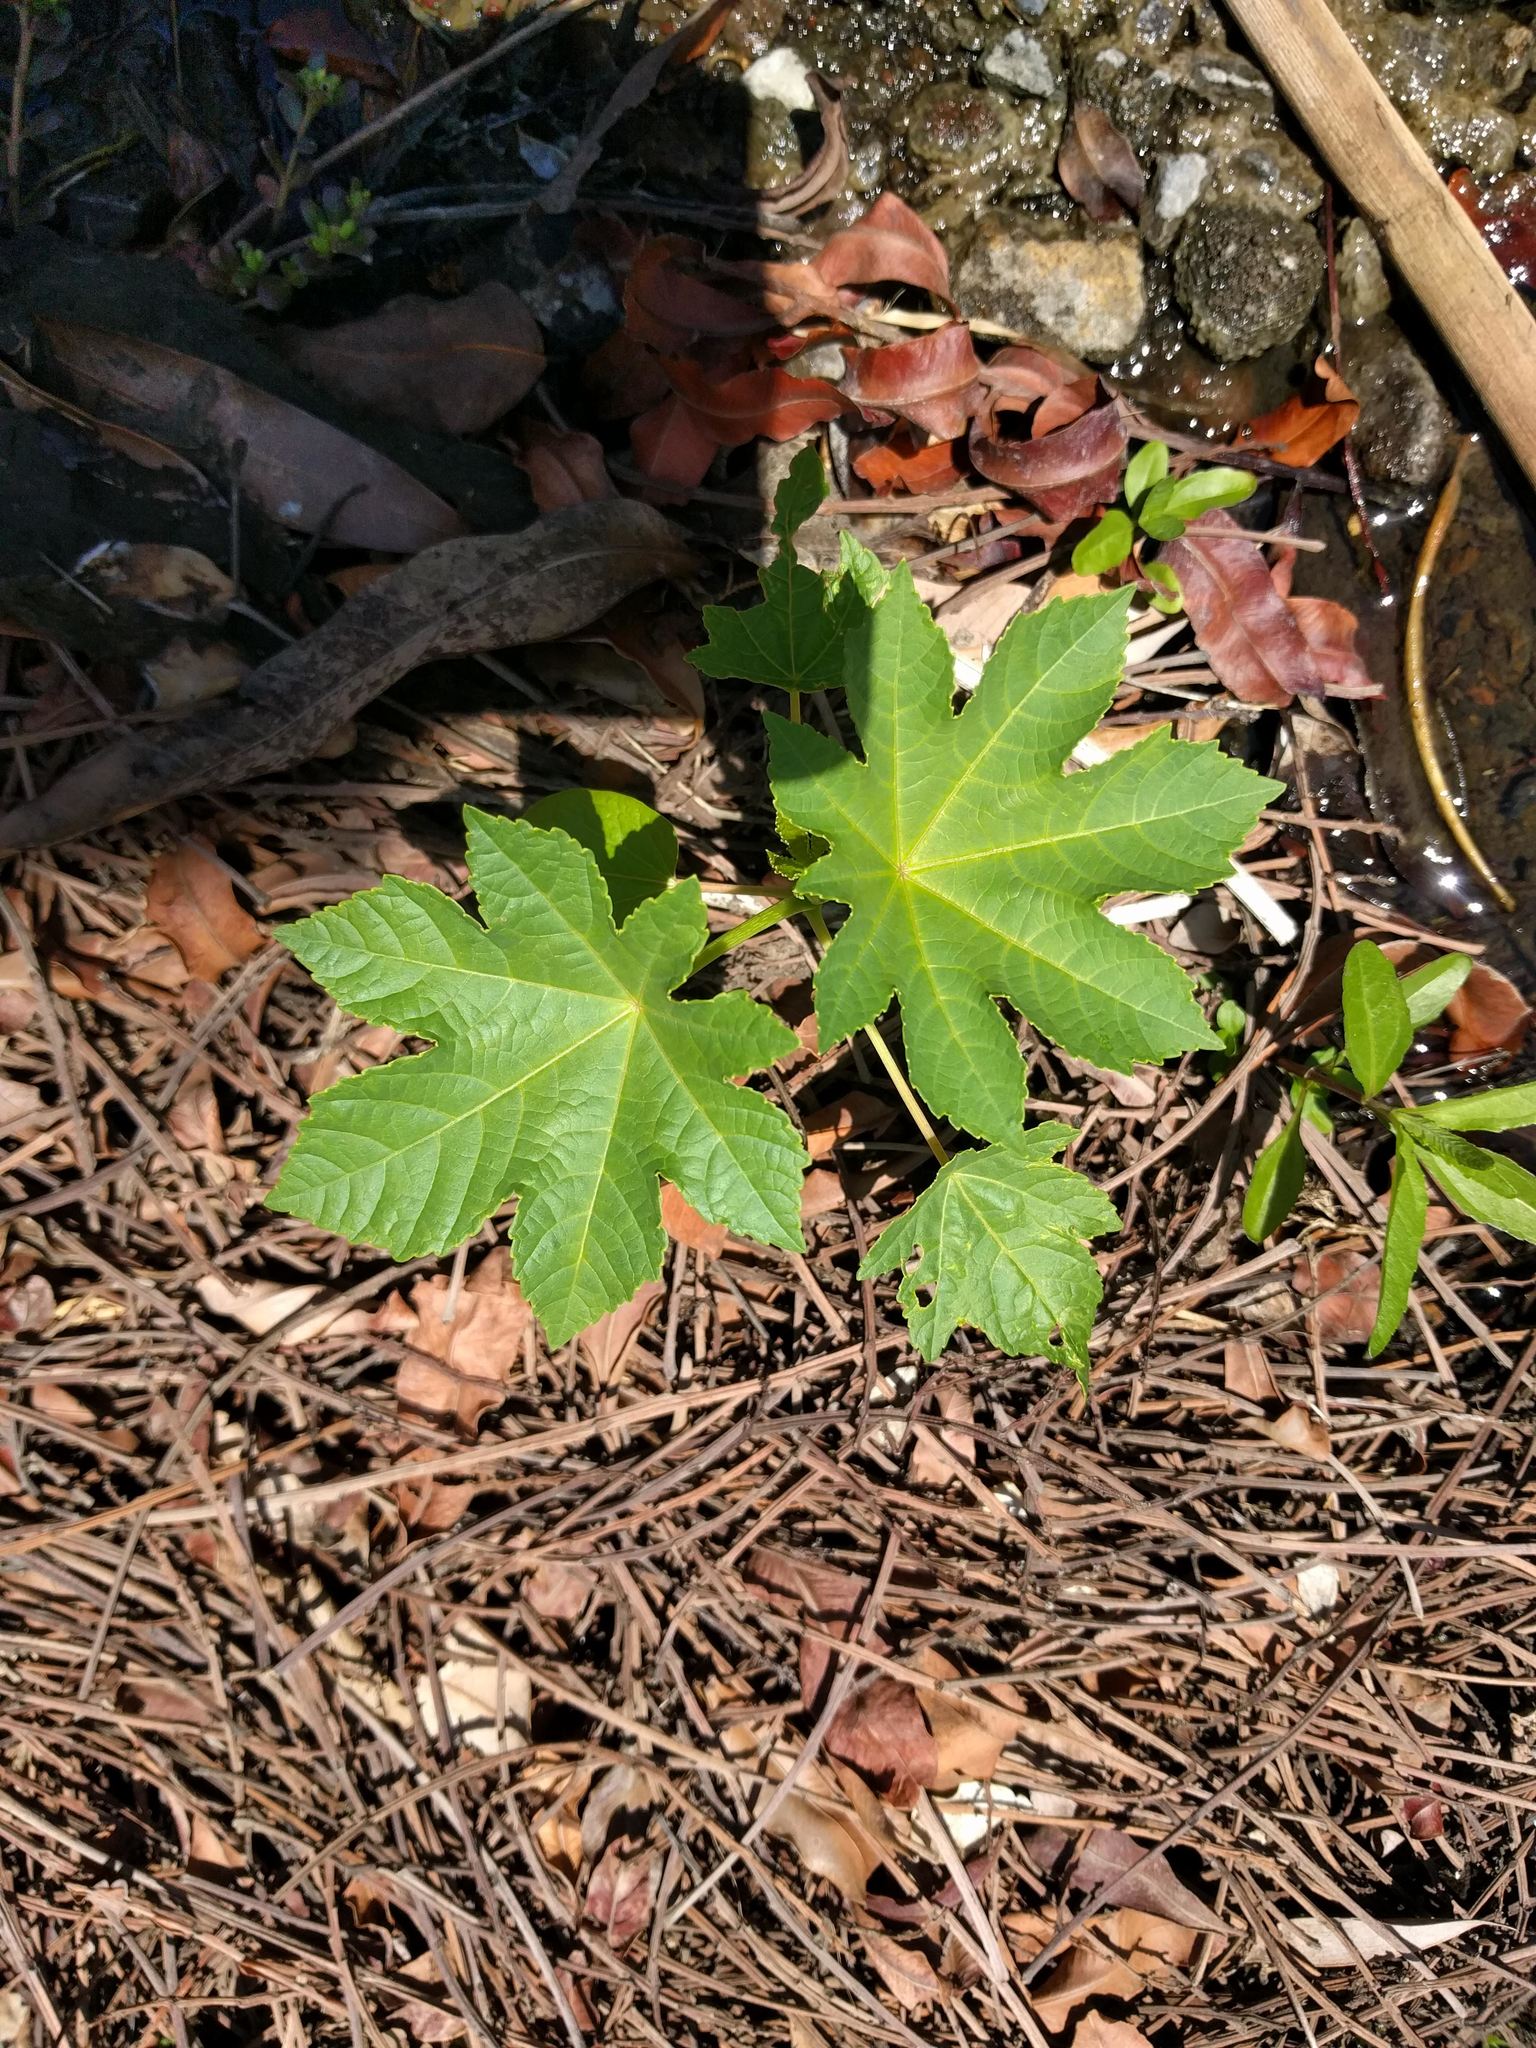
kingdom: Plantae
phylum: Tracheophyta
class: Magnoliopsida
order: Malpighiales
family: Euphorbiaceae
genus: Ricinus
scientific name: Ricinus communis
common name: Castor-oil-plant
